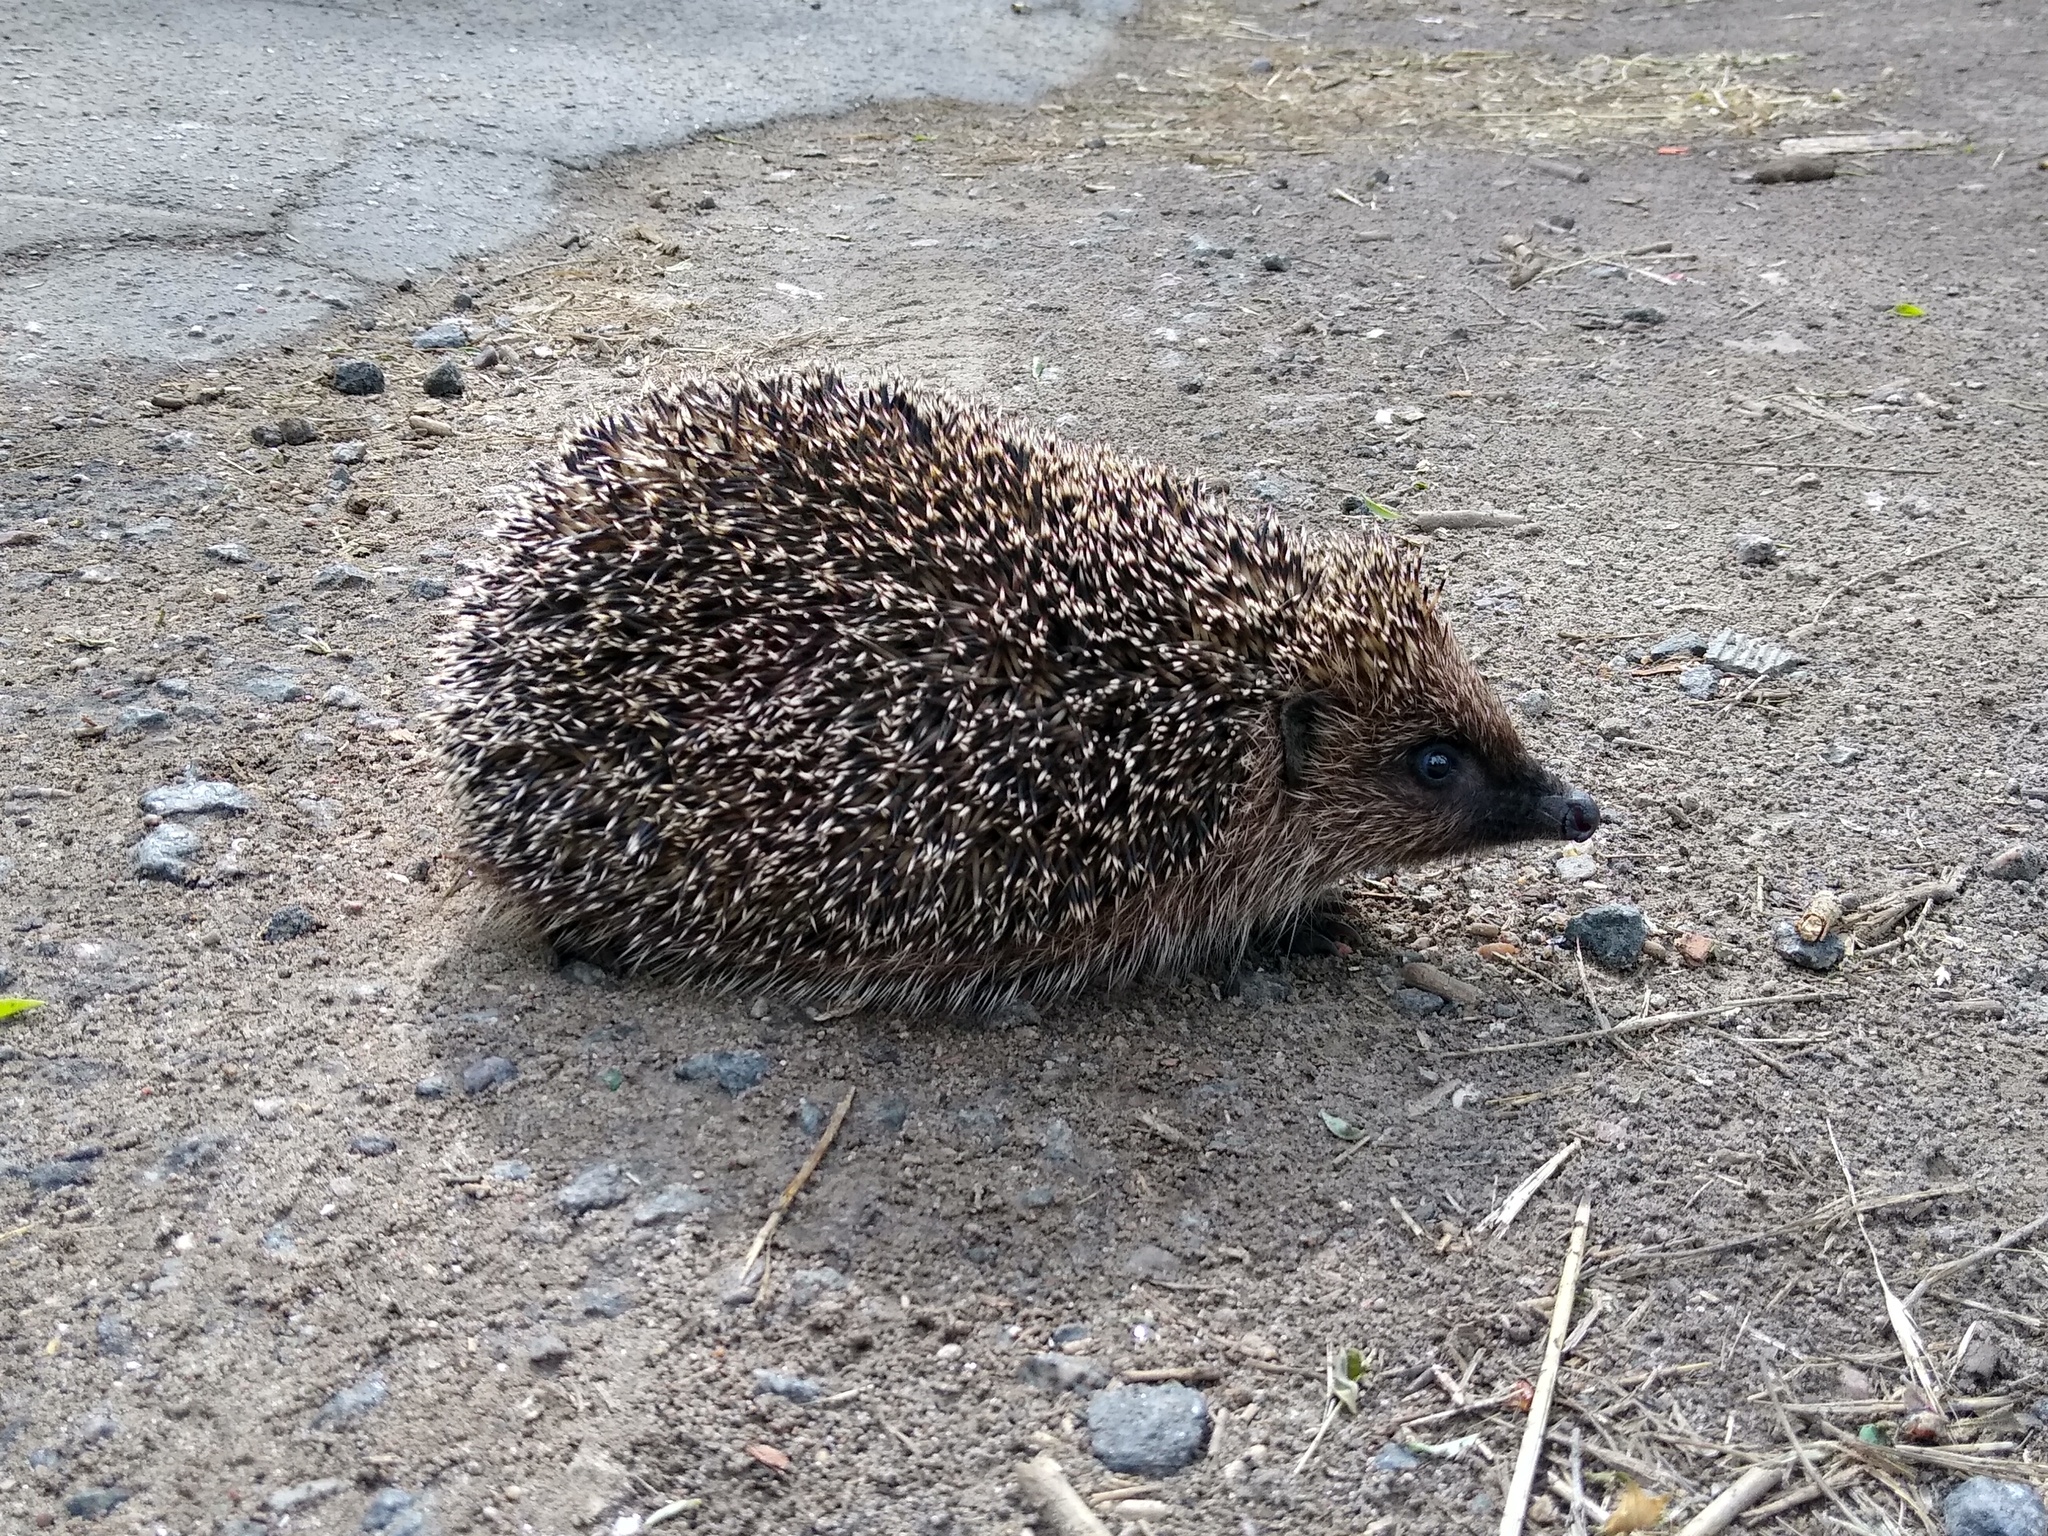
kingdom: Animalia
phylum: Chordata
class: Mammalia
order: Erinaceomorpha
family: Erinaceidae
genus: Erinaceus
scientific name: Erinaceus roumanicus
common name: Northern white-breasted hedgehog
